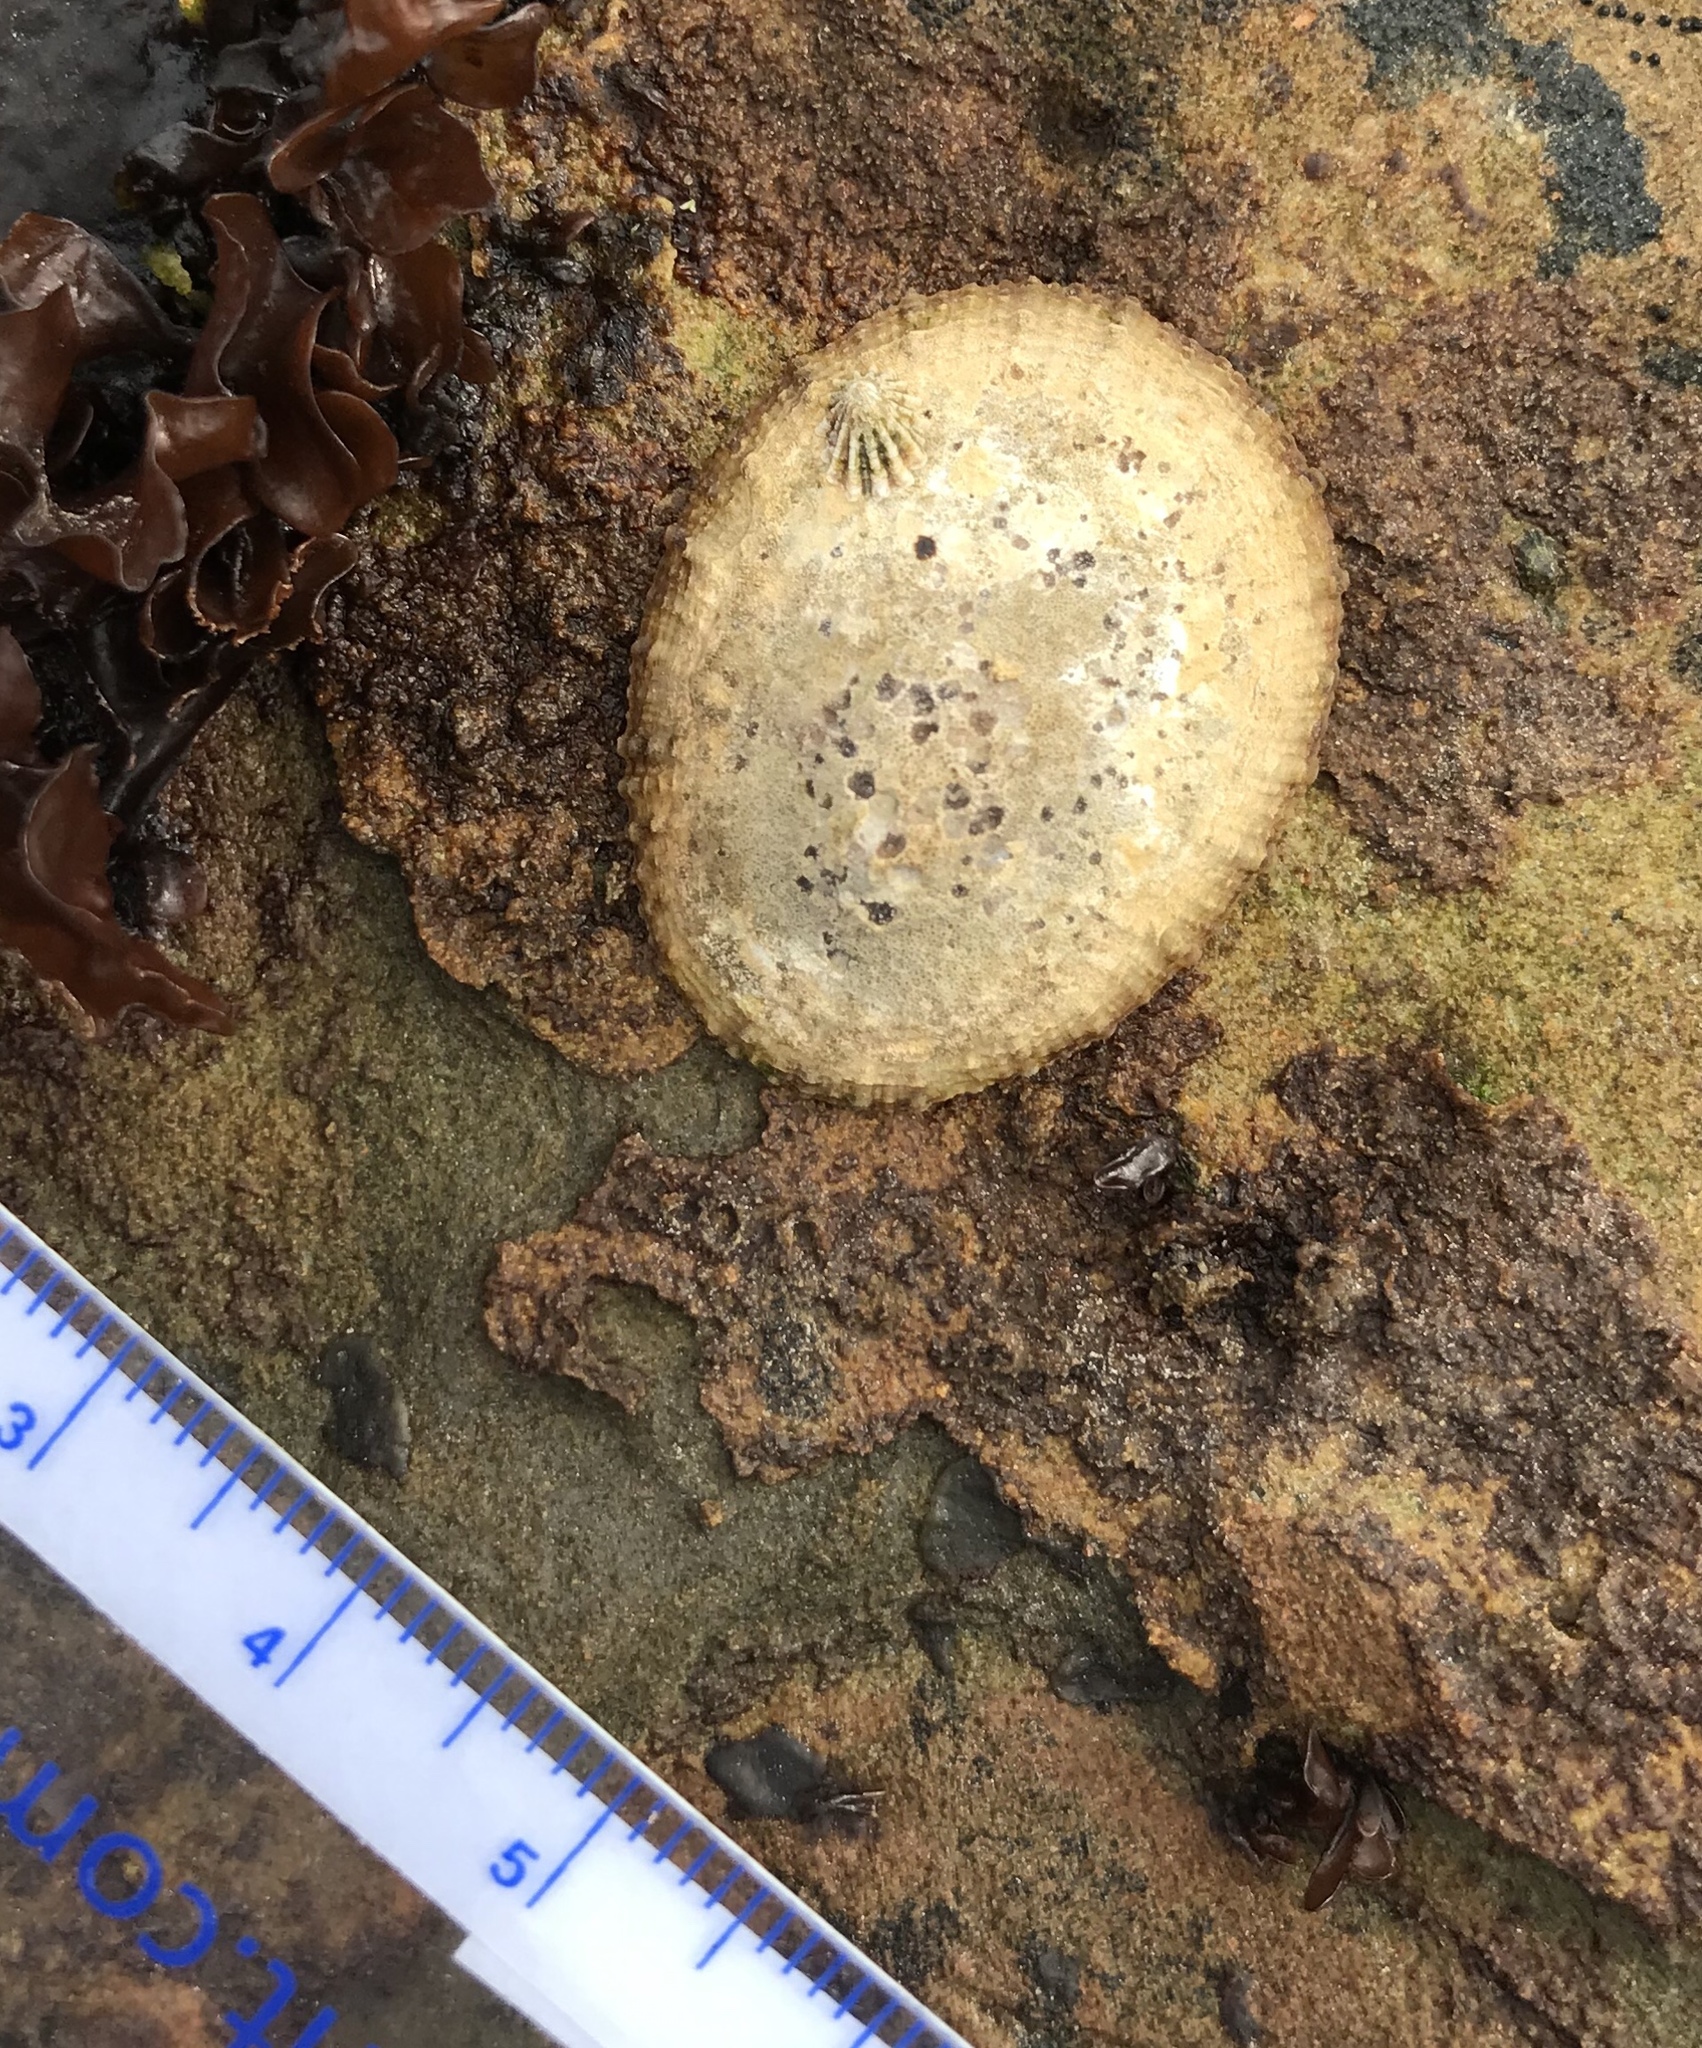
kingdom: Animalia
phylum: Mollusca
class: Gastropoda
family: Lottiidae
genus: Lottia
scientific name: Lottia gigantea
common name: Owl limpet
